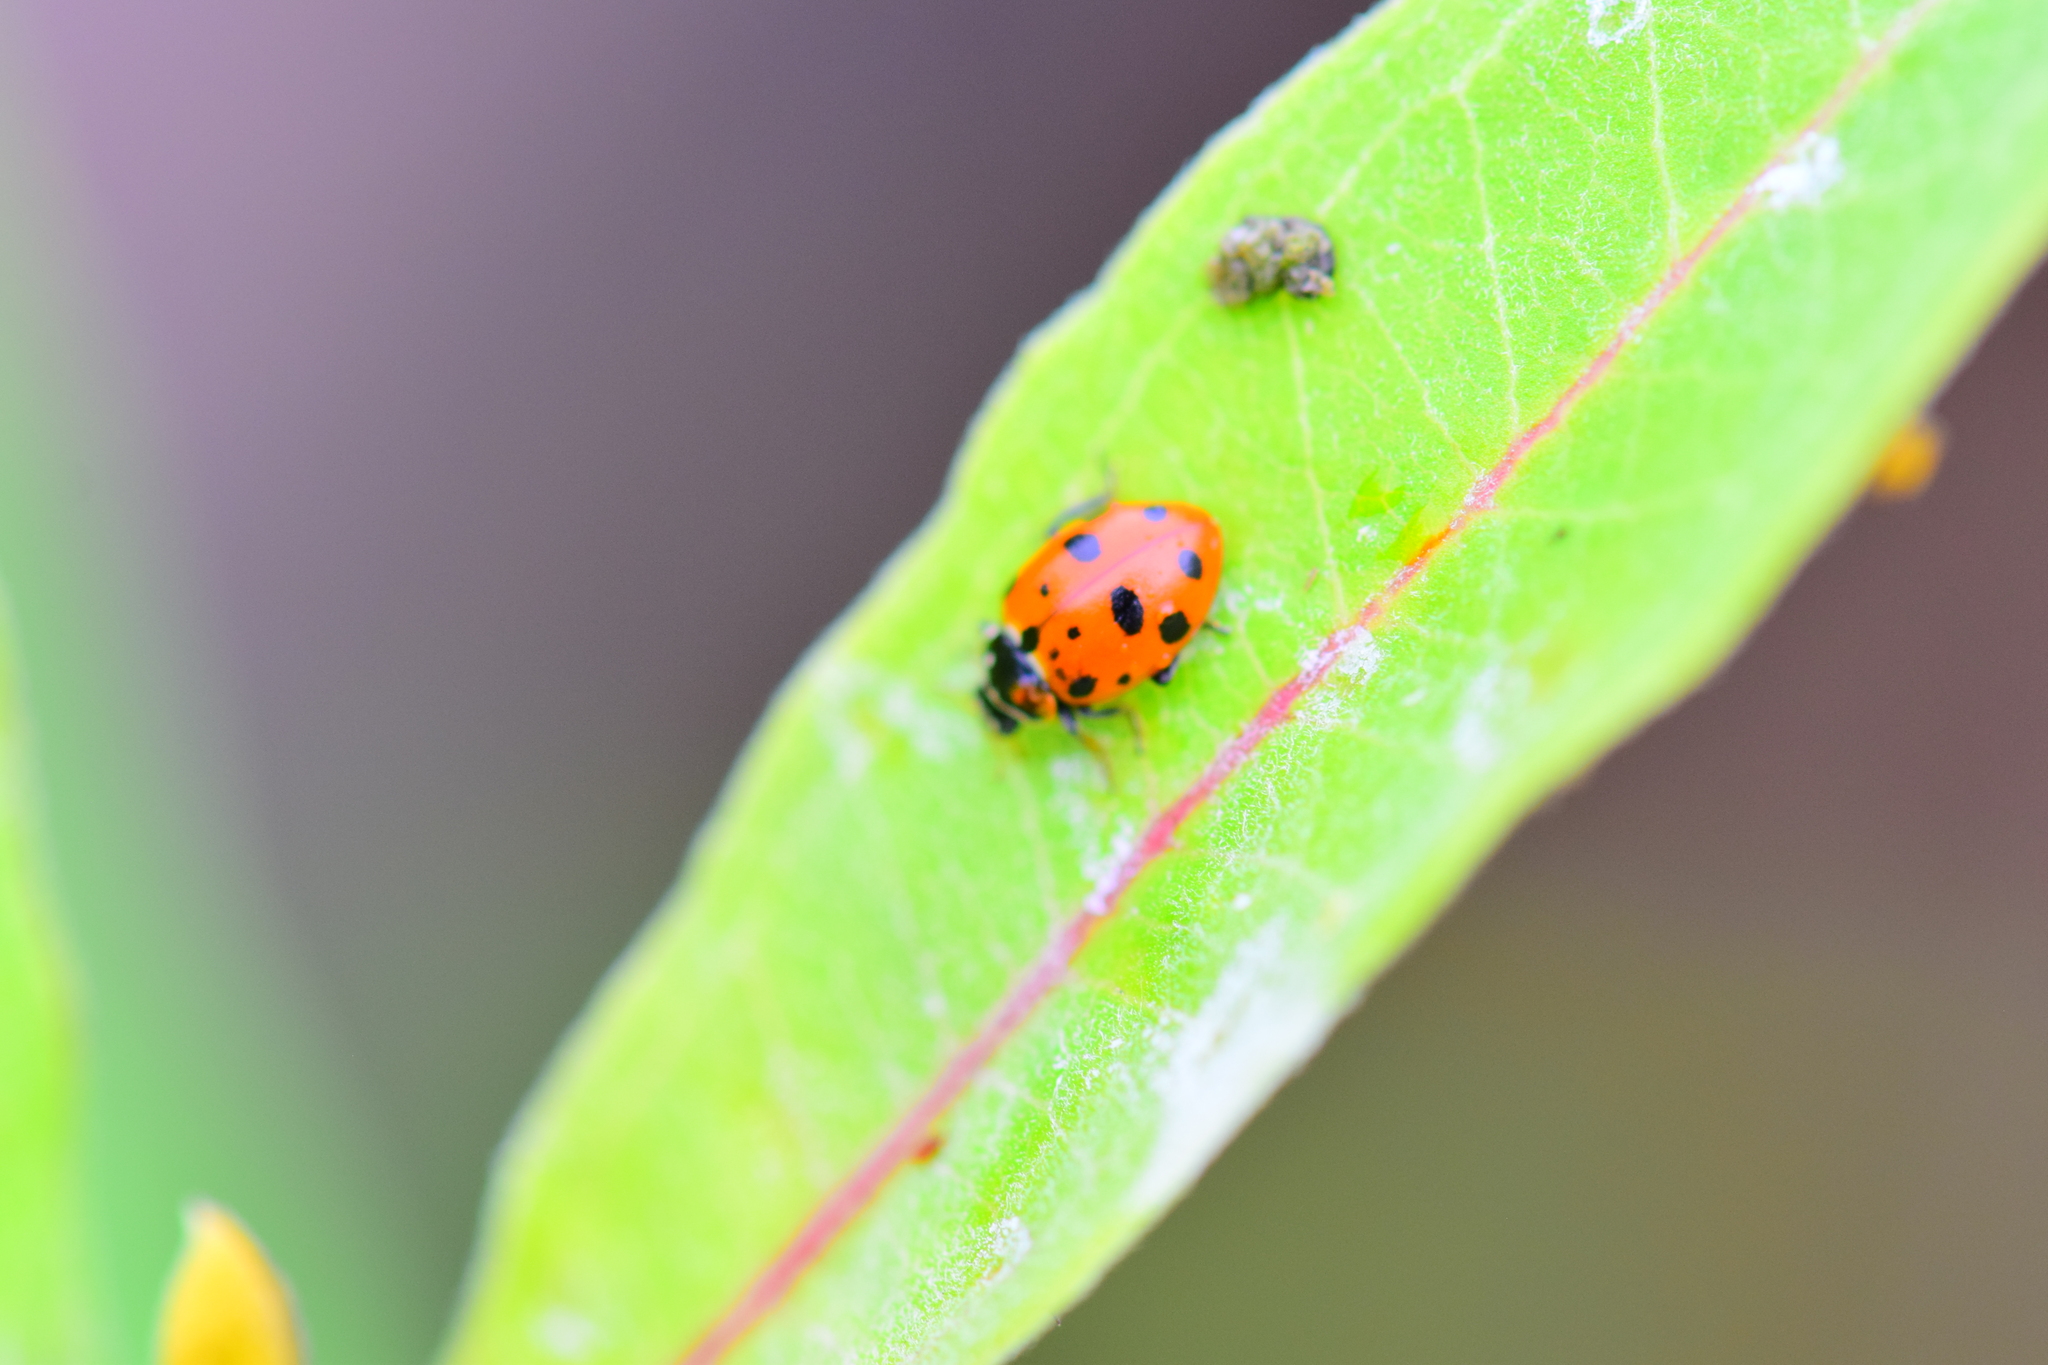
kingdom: Animalia
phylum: Arthropoda
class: Insecta
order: Coleoptera
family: Coccinellidae
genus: Hippodamia
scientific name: Hippodamia variegata
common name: Ladybird beetle
